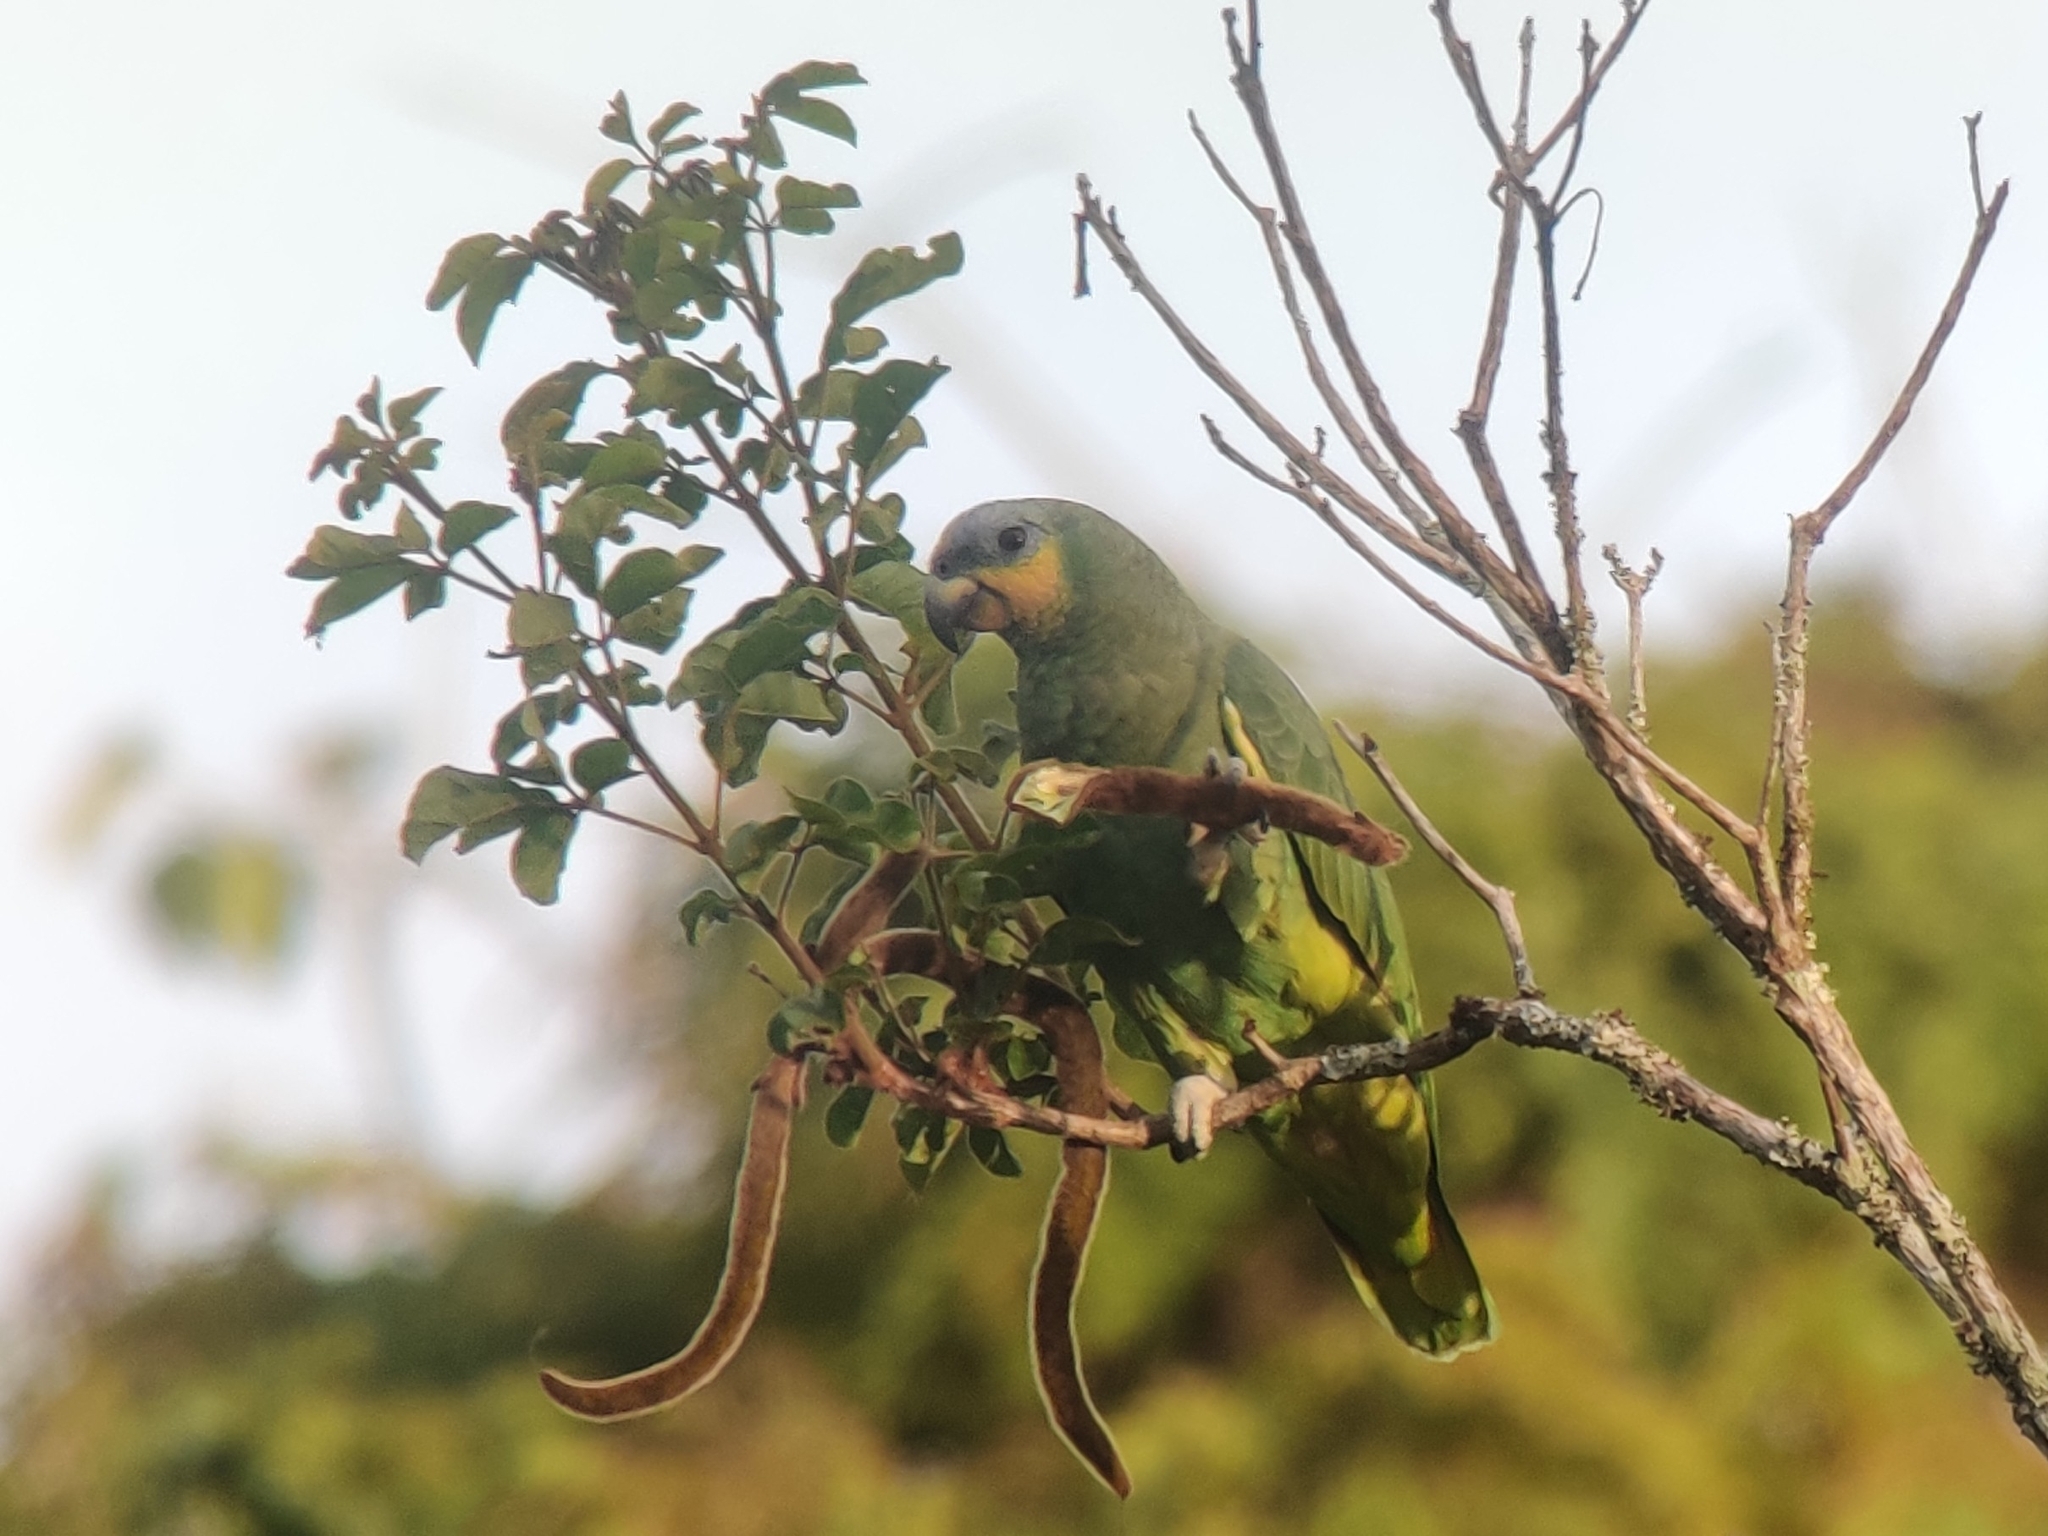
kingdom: Animalia
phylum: Chordata
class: Aves
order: Psittaciformes
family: Psittacidae
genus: Amazona
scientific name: Amazona amazonica
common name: Orange-winged amazon
